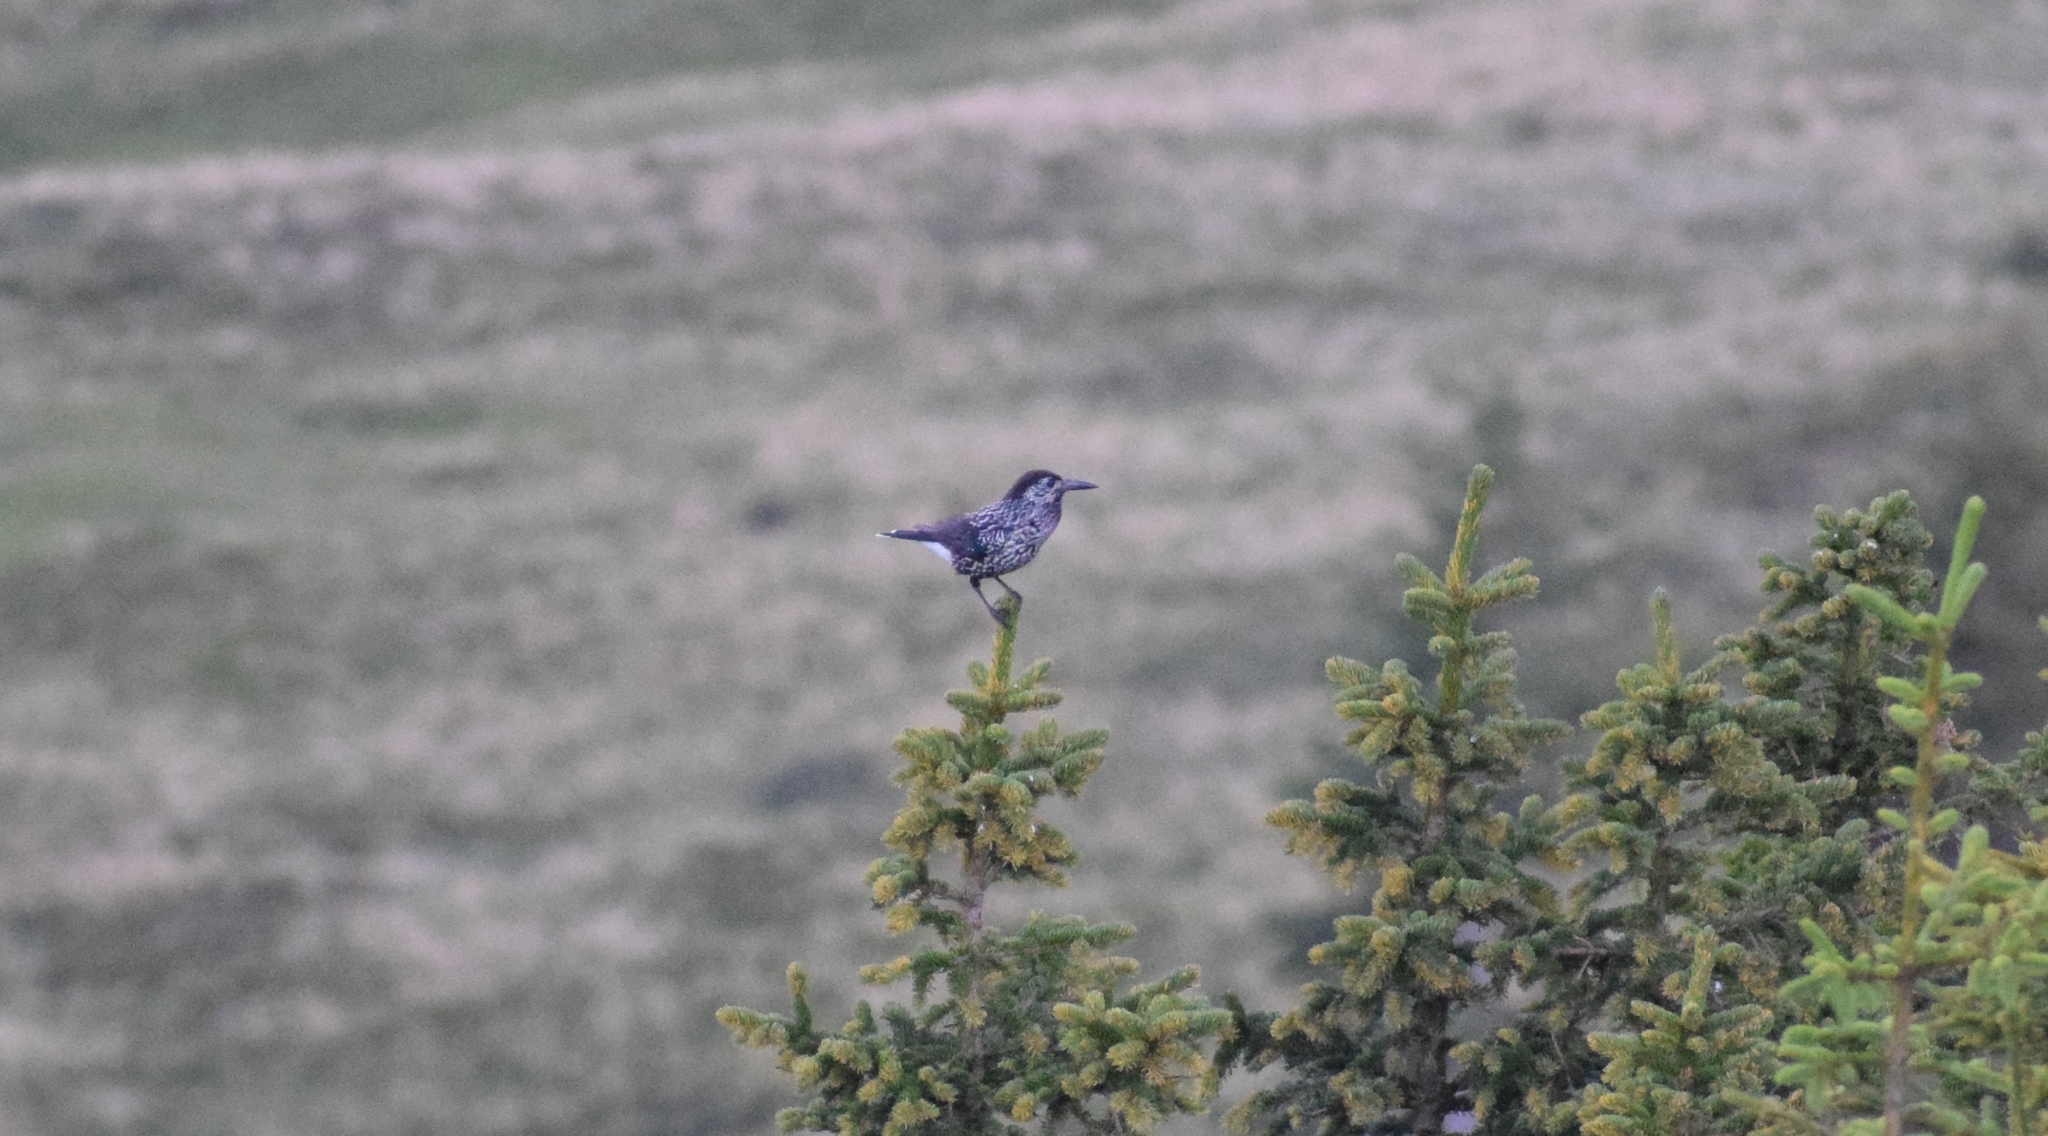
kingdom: Animalia
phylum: Chordata
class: Aves
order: Passeriformes
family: Corvidae
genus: Nucifraga
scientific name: Nucifraga caryocatactes
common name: Spotted nutcracker
